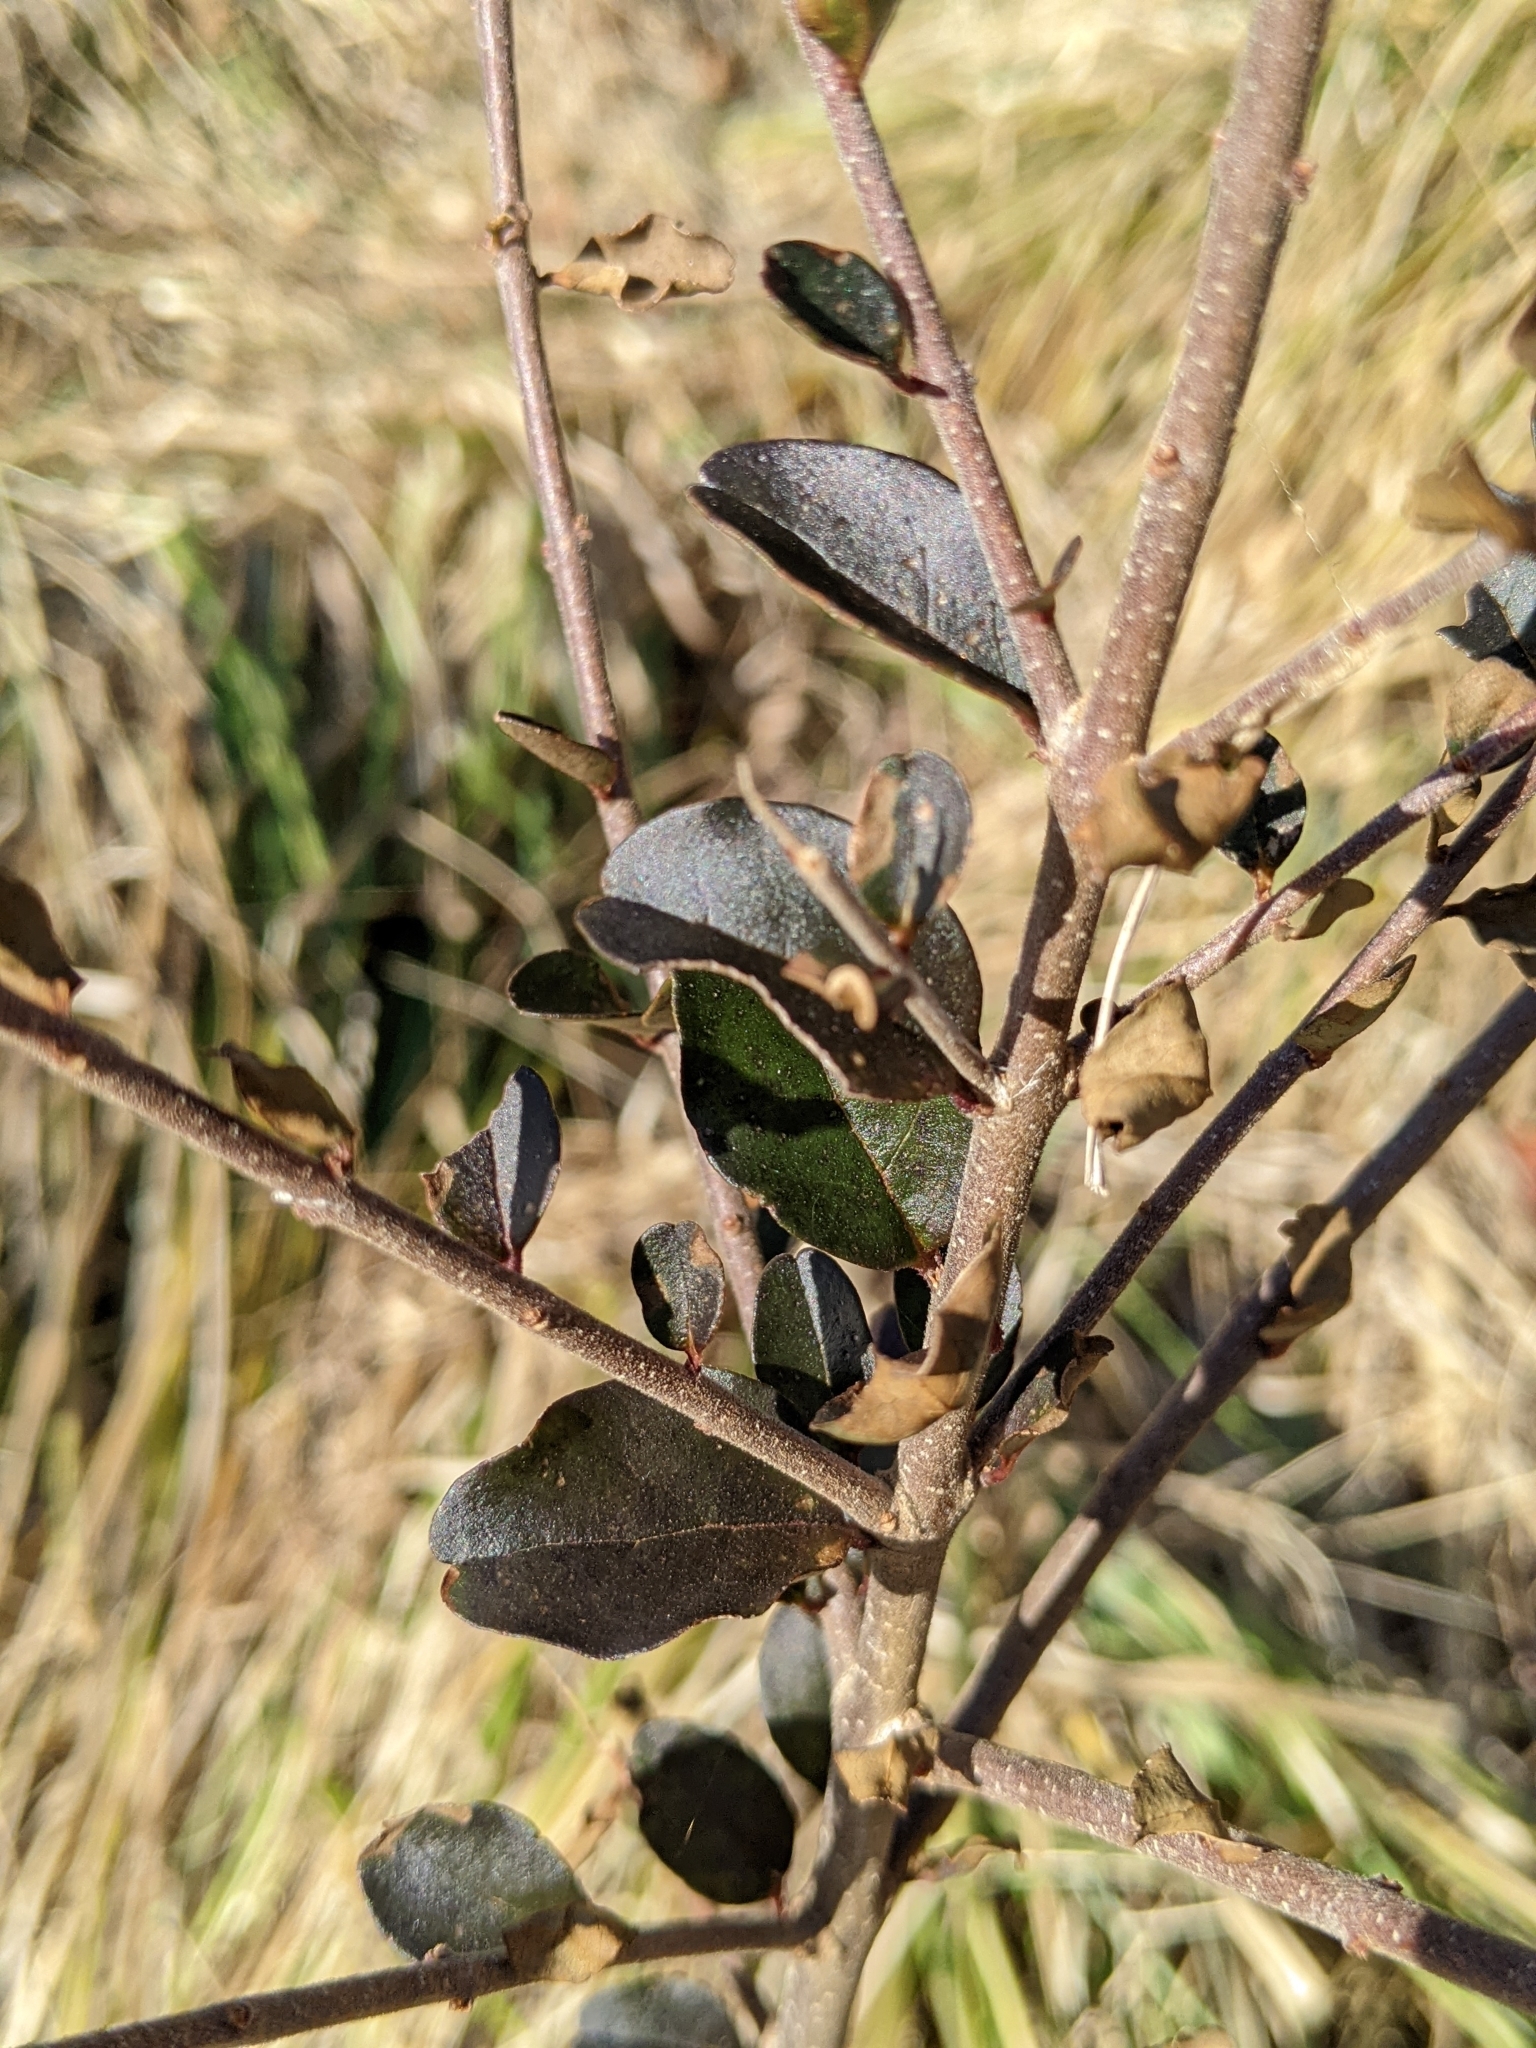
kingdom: Plantae
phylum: Tracheophyta
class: Magnoliopsida
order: Lamiales
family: Oleaceae
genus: Ligustrum
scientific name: Ligustrum sinense
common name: Chinese privet
